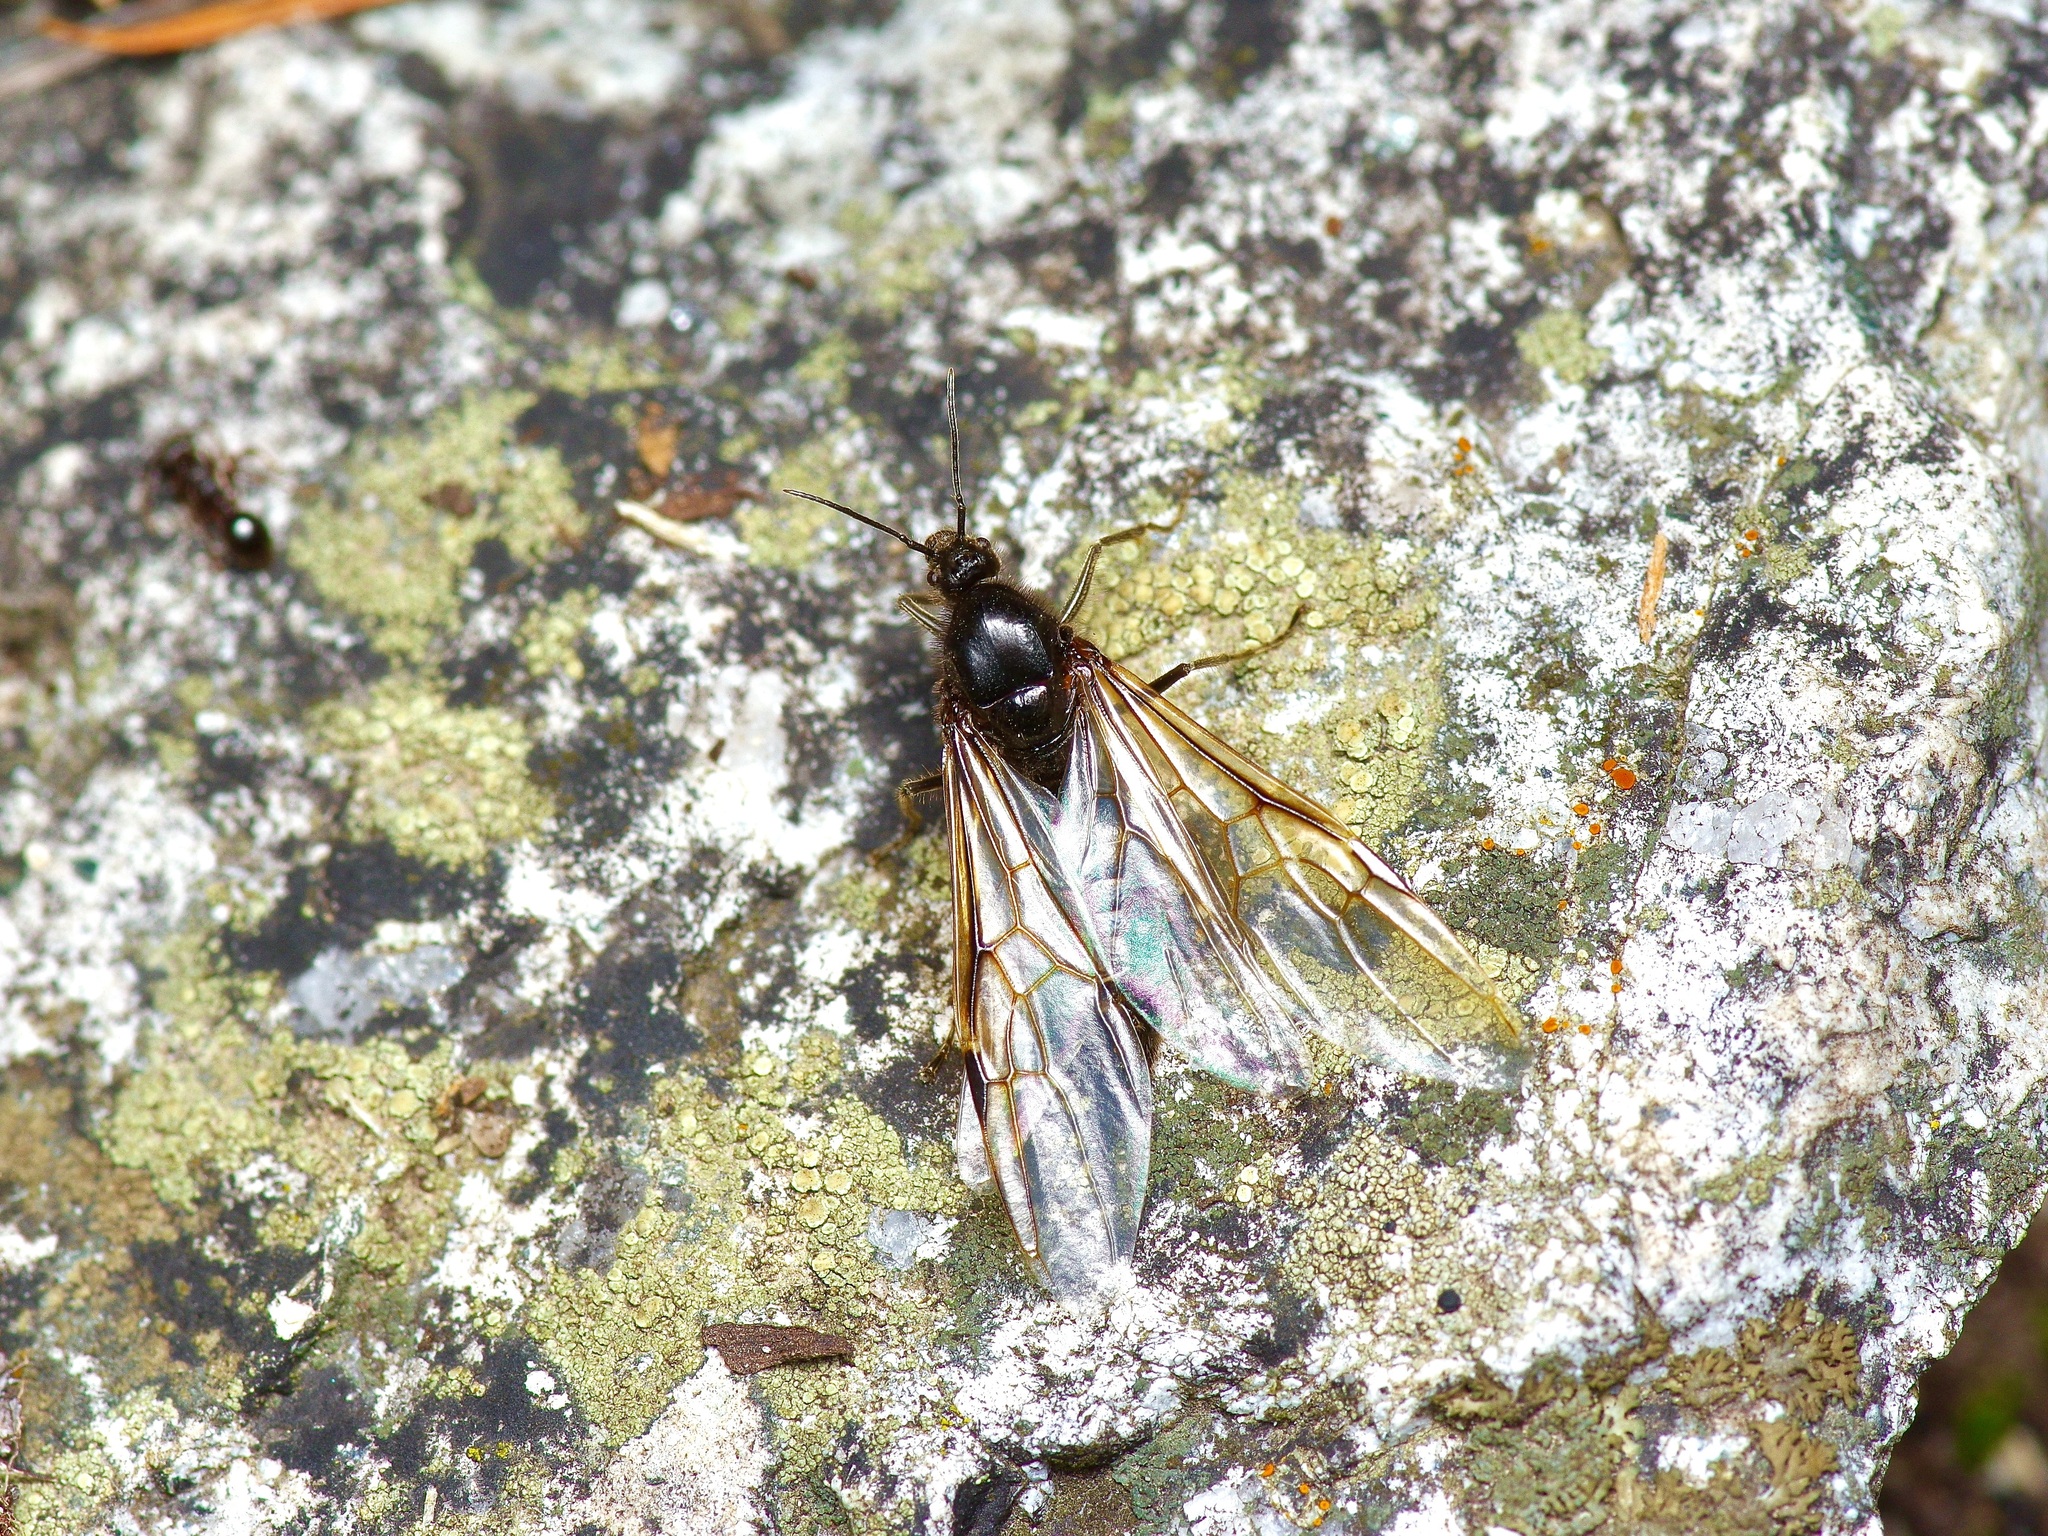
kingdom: Animalia
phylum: Arthropoda
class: Insecta
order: Hymenoptera
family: Formicidae
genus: Liometopum
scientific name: Liometopum apiculatum
